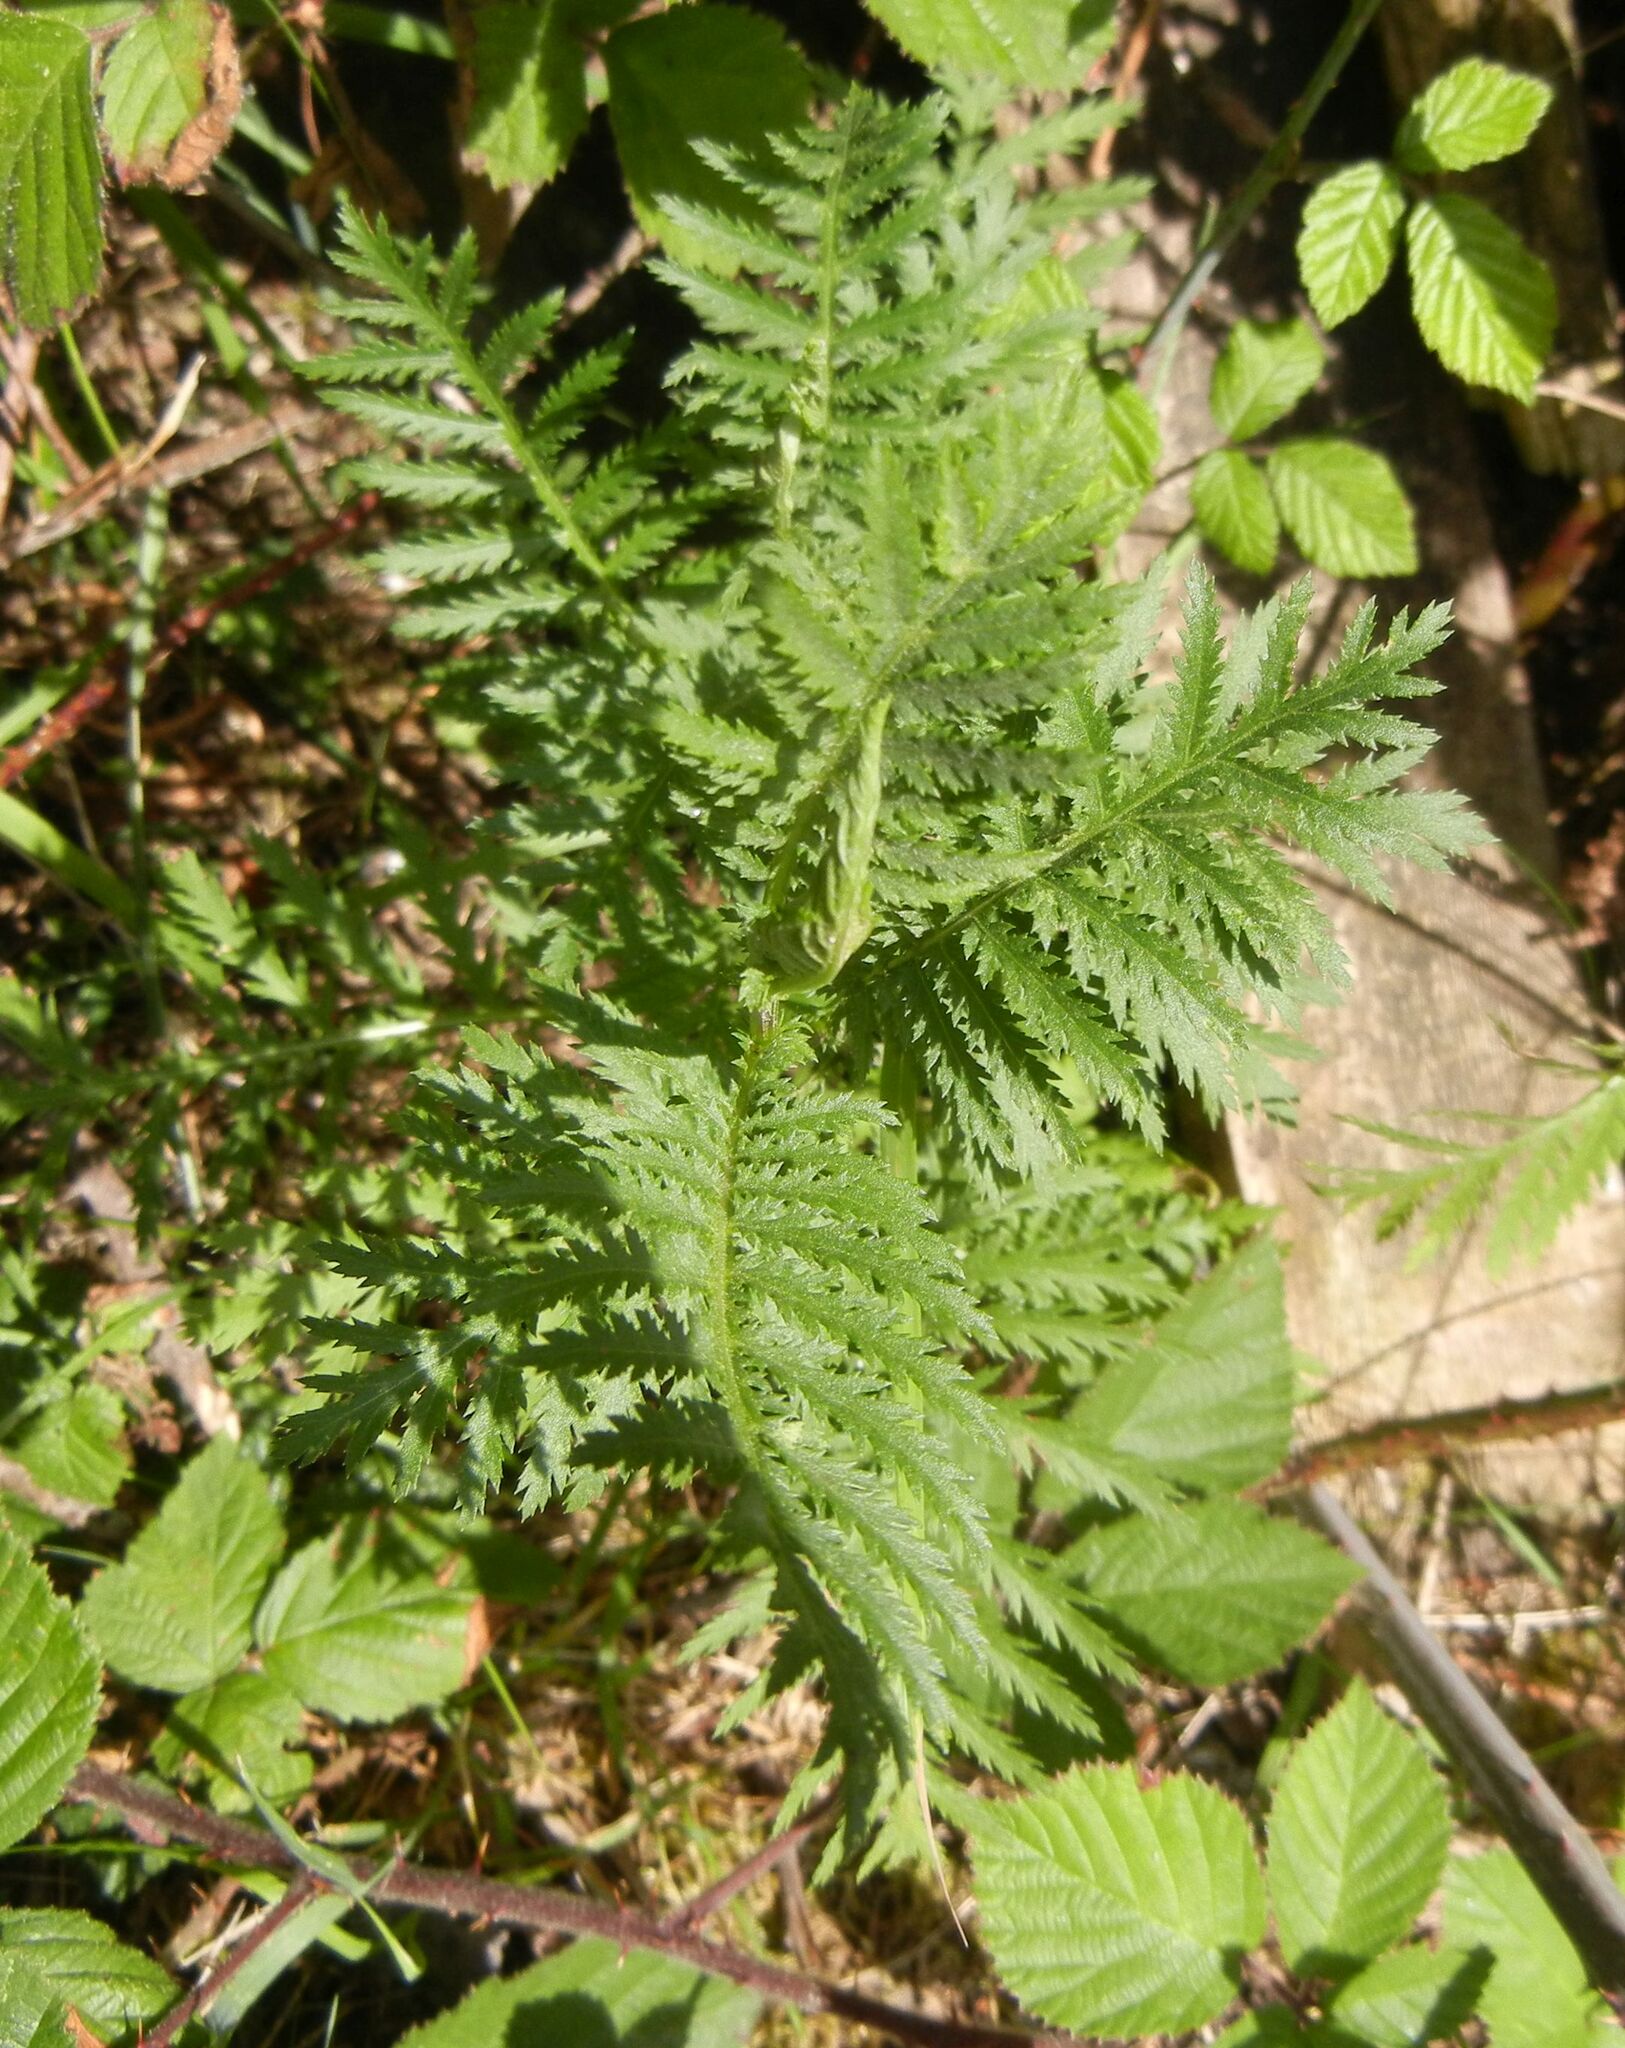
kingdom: Plantae
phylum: Tracheophyta
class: Magnoliopsida
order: Asterales
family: Asteraceae
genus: Tanacetum
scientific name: Tanacetum vulgare
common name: Common tansy
